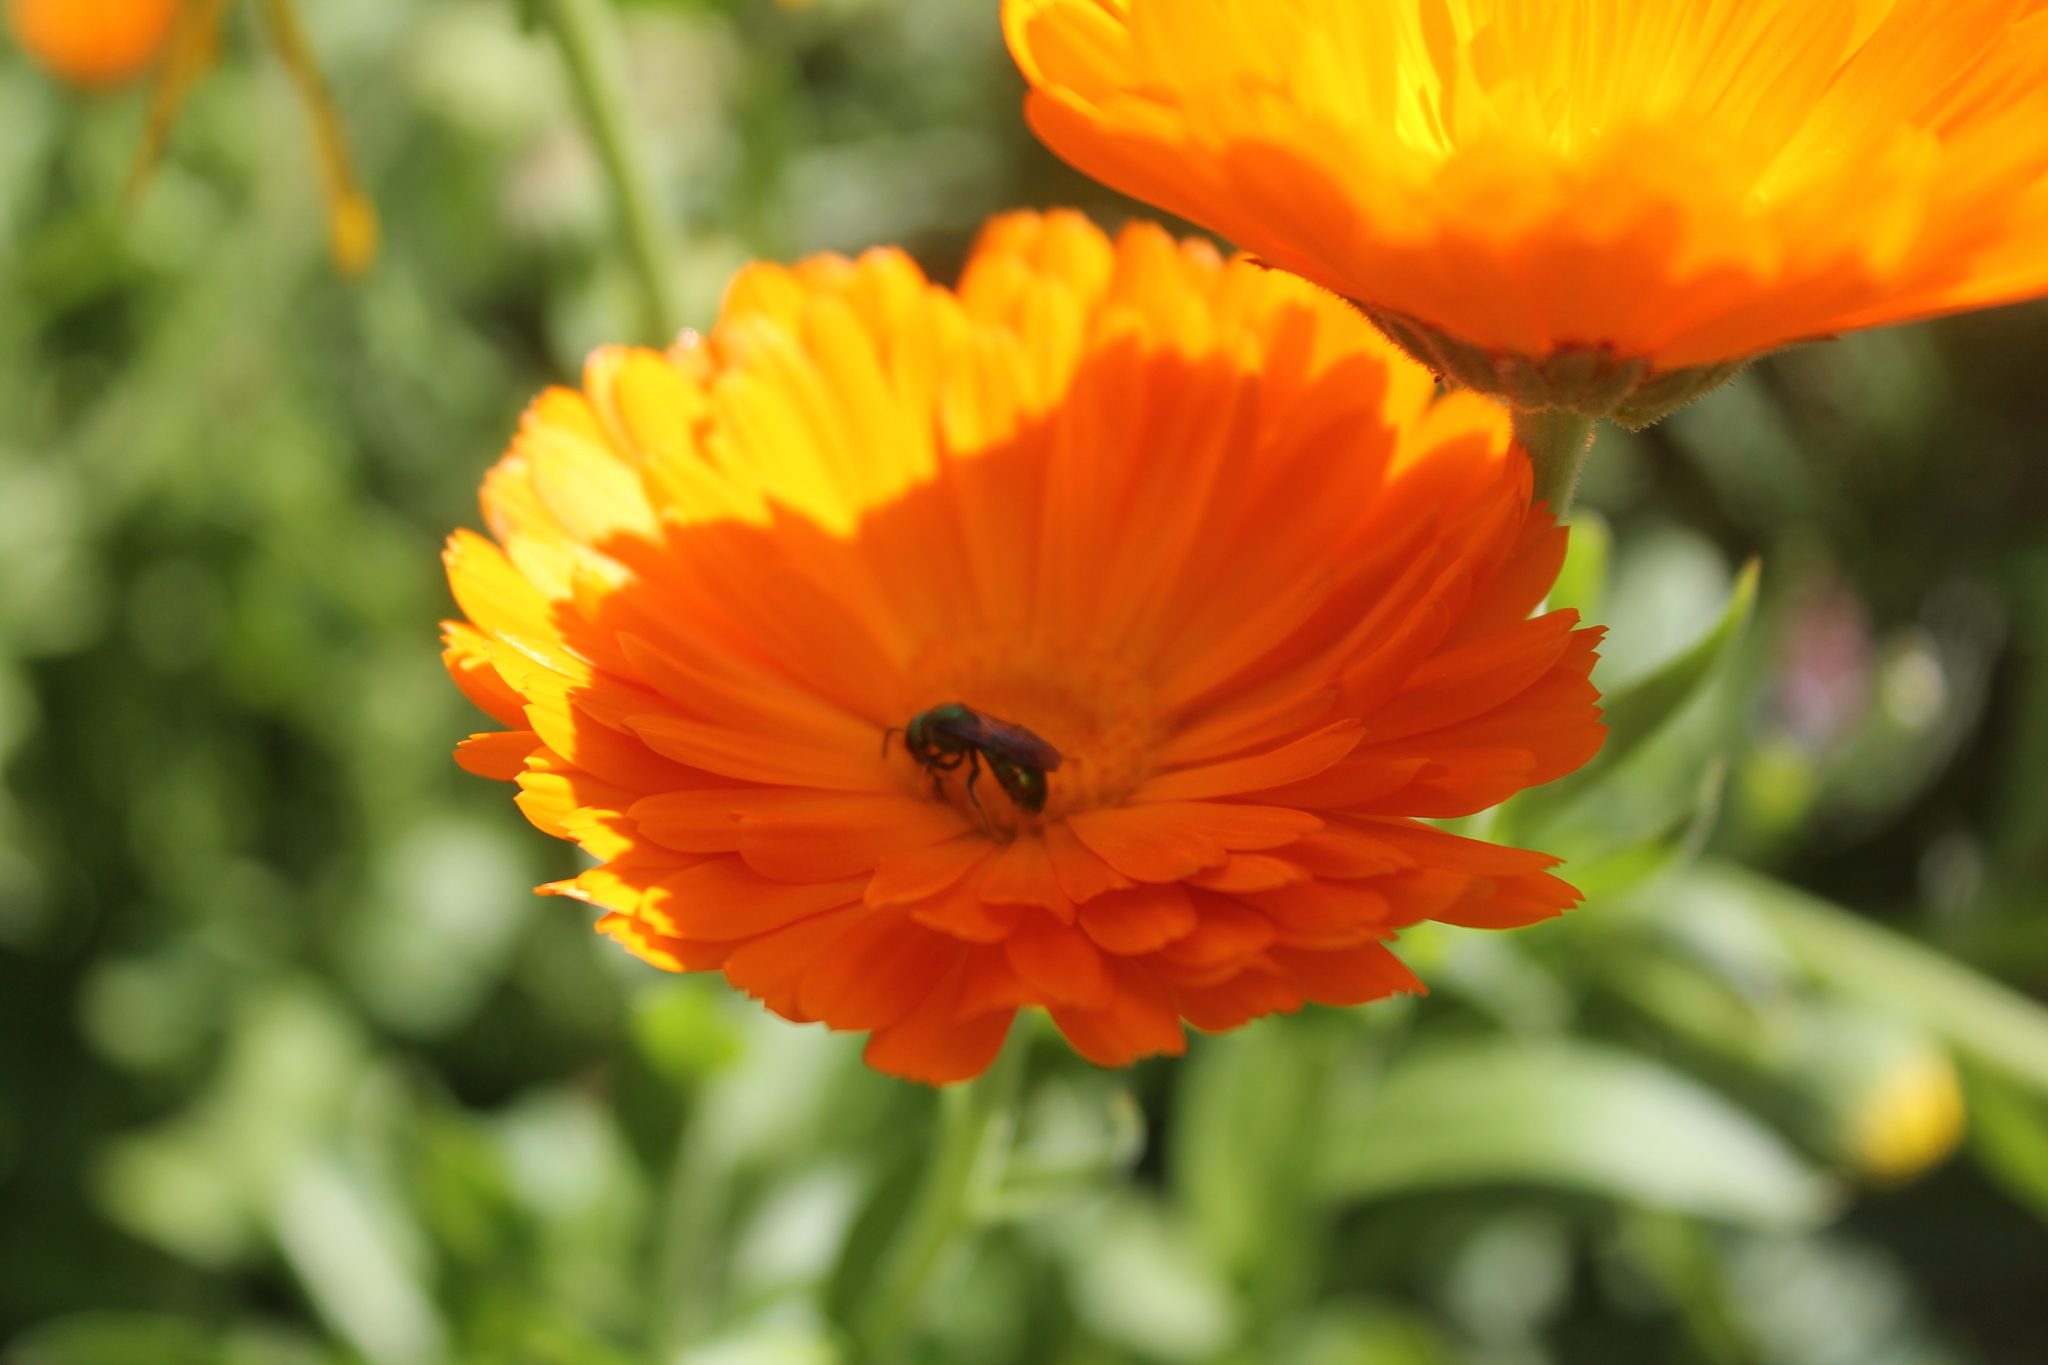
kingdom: Animalia
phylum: Arthropoda
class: Insecta
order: Hymenoptera
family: Halictidae
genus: Augochlora
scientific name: Augochlora pura
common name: Pure green sweat bee
